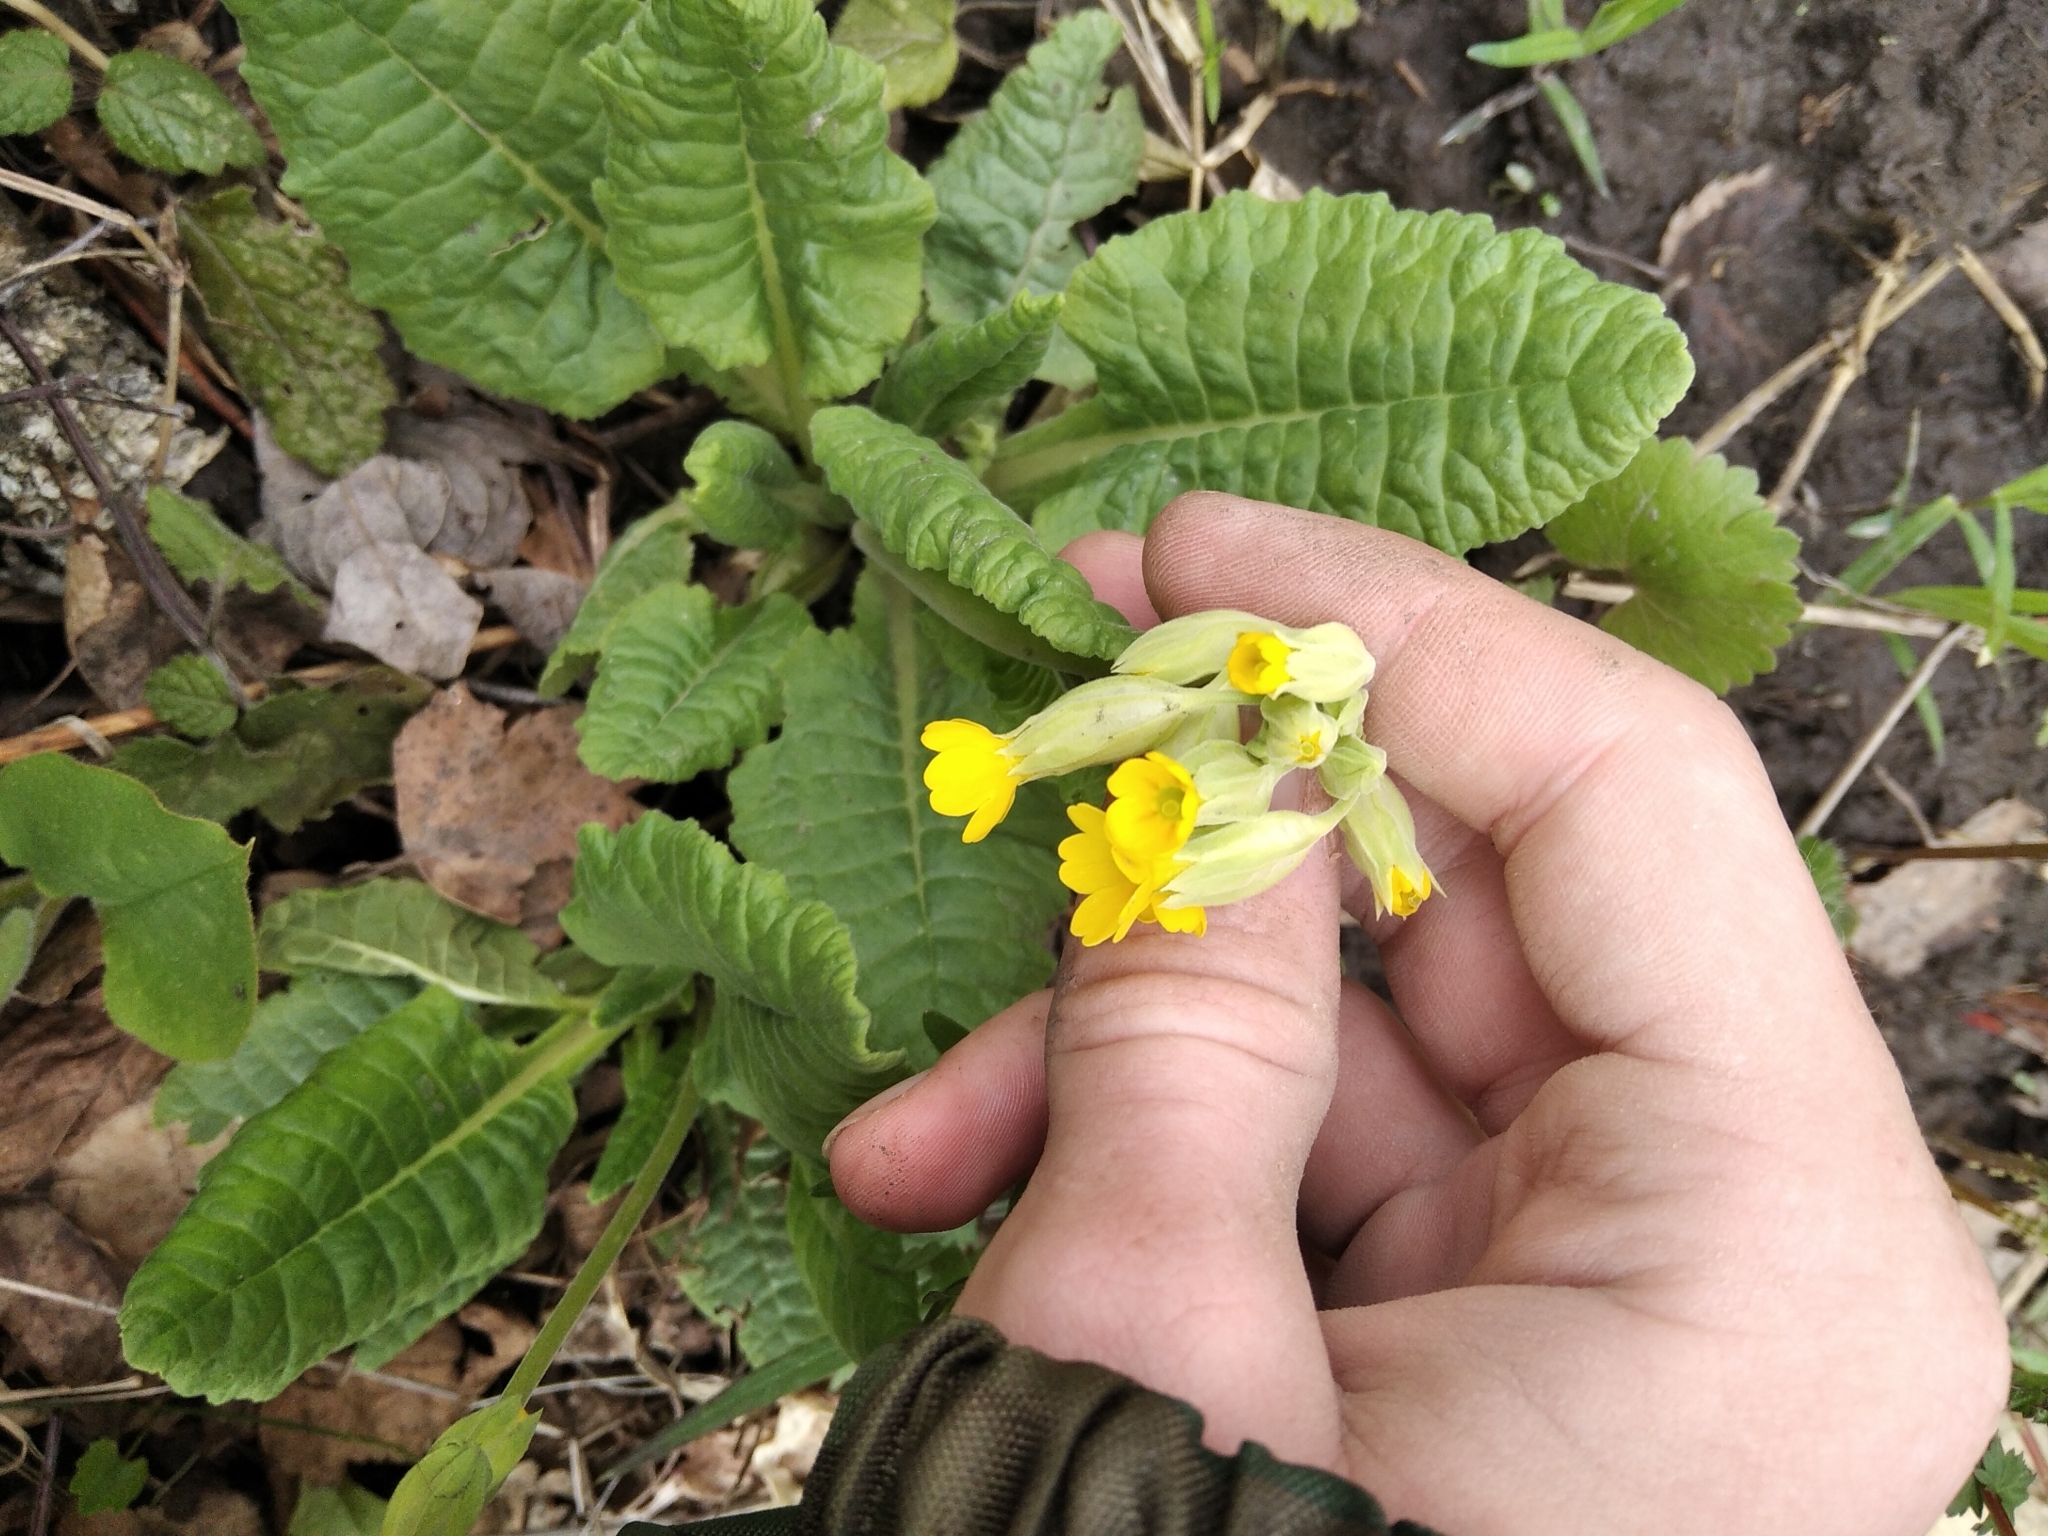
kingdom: Plantae
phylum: Tracheophyta
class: Magnoliopsida
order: Ericales
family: Primulaceae
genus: Primula
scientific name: Primula veris
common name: Cowslip
